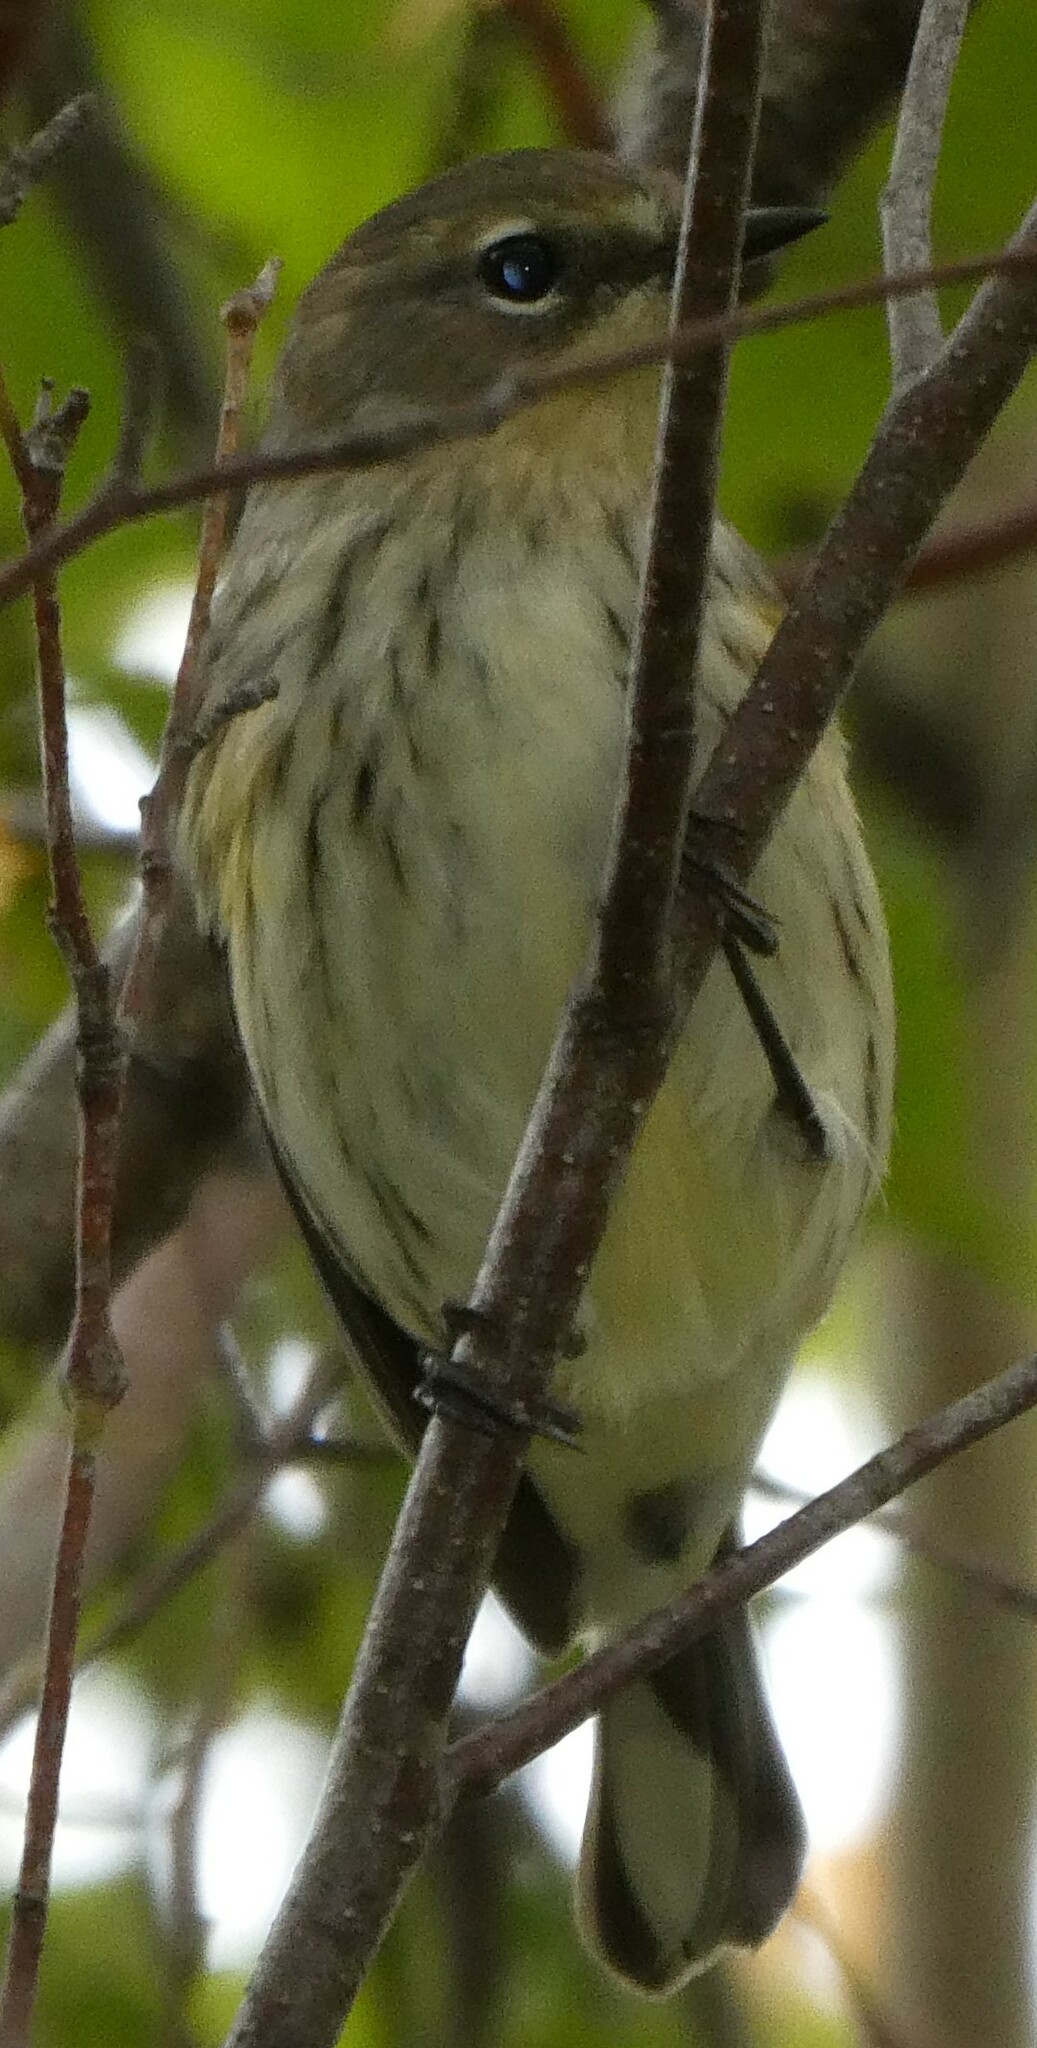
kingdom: Animalia
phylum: Chordata
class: Aves
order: Passeriformes
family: Parulidae
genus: Setophaga
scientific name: Setophaga coronata
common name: Myrtle warbler
